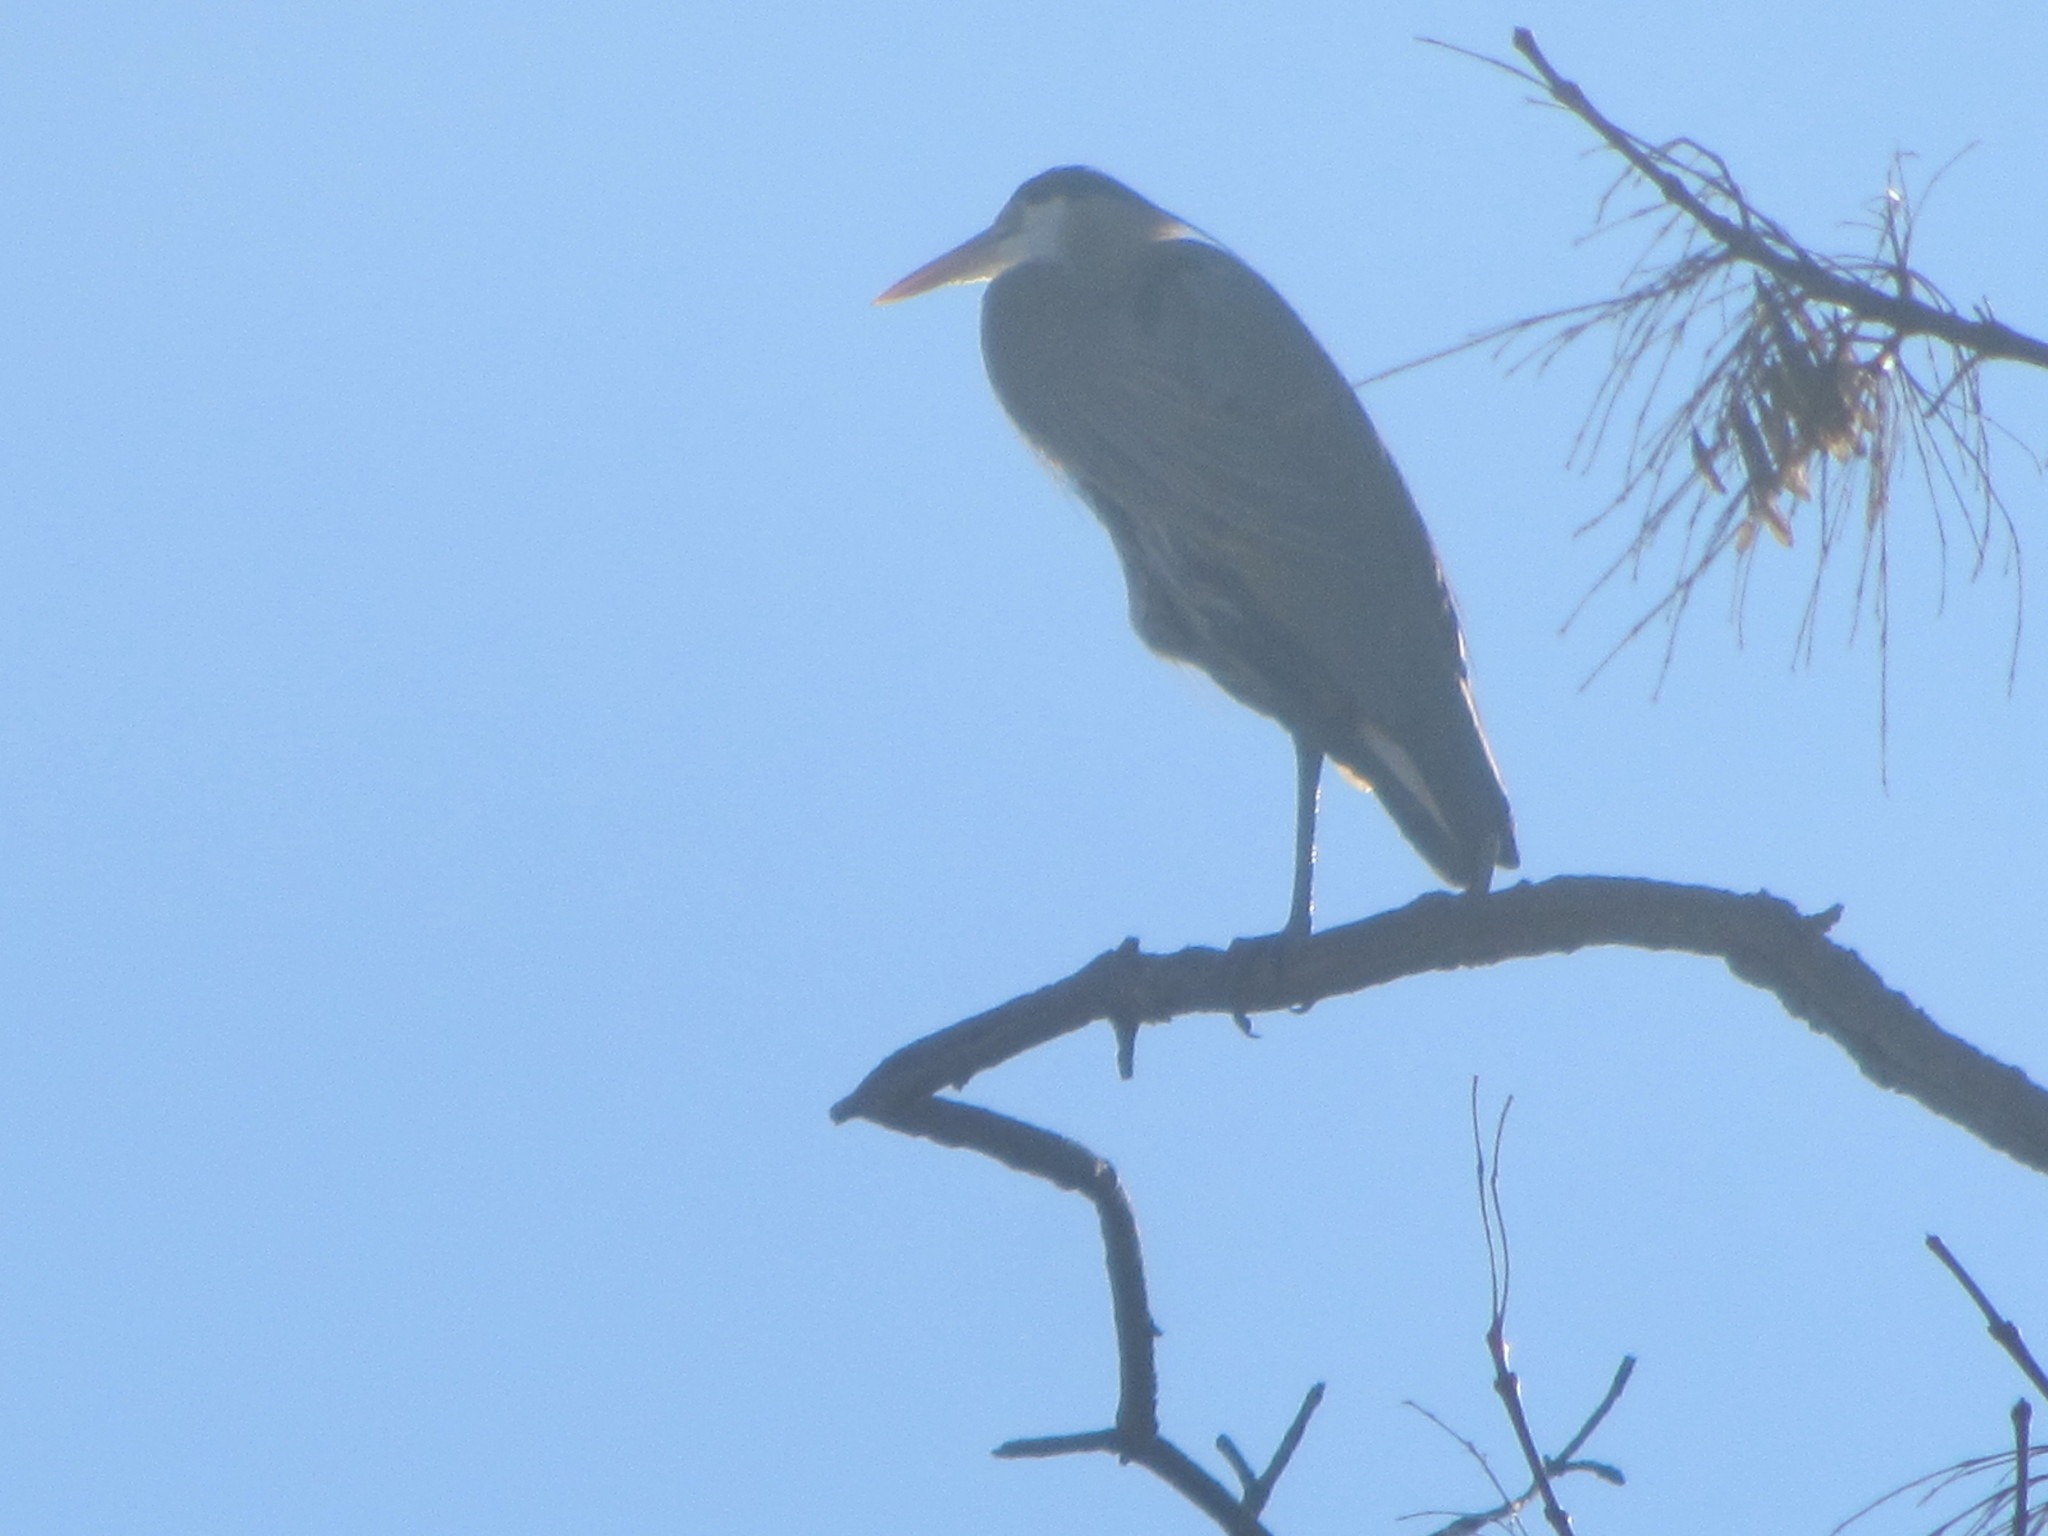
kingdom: Animalia
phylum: Chordata
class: Aves
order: Pelecaniformes
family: Ardeidae
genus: Ardea
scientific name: Ardea herodias
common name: Great blue heron
